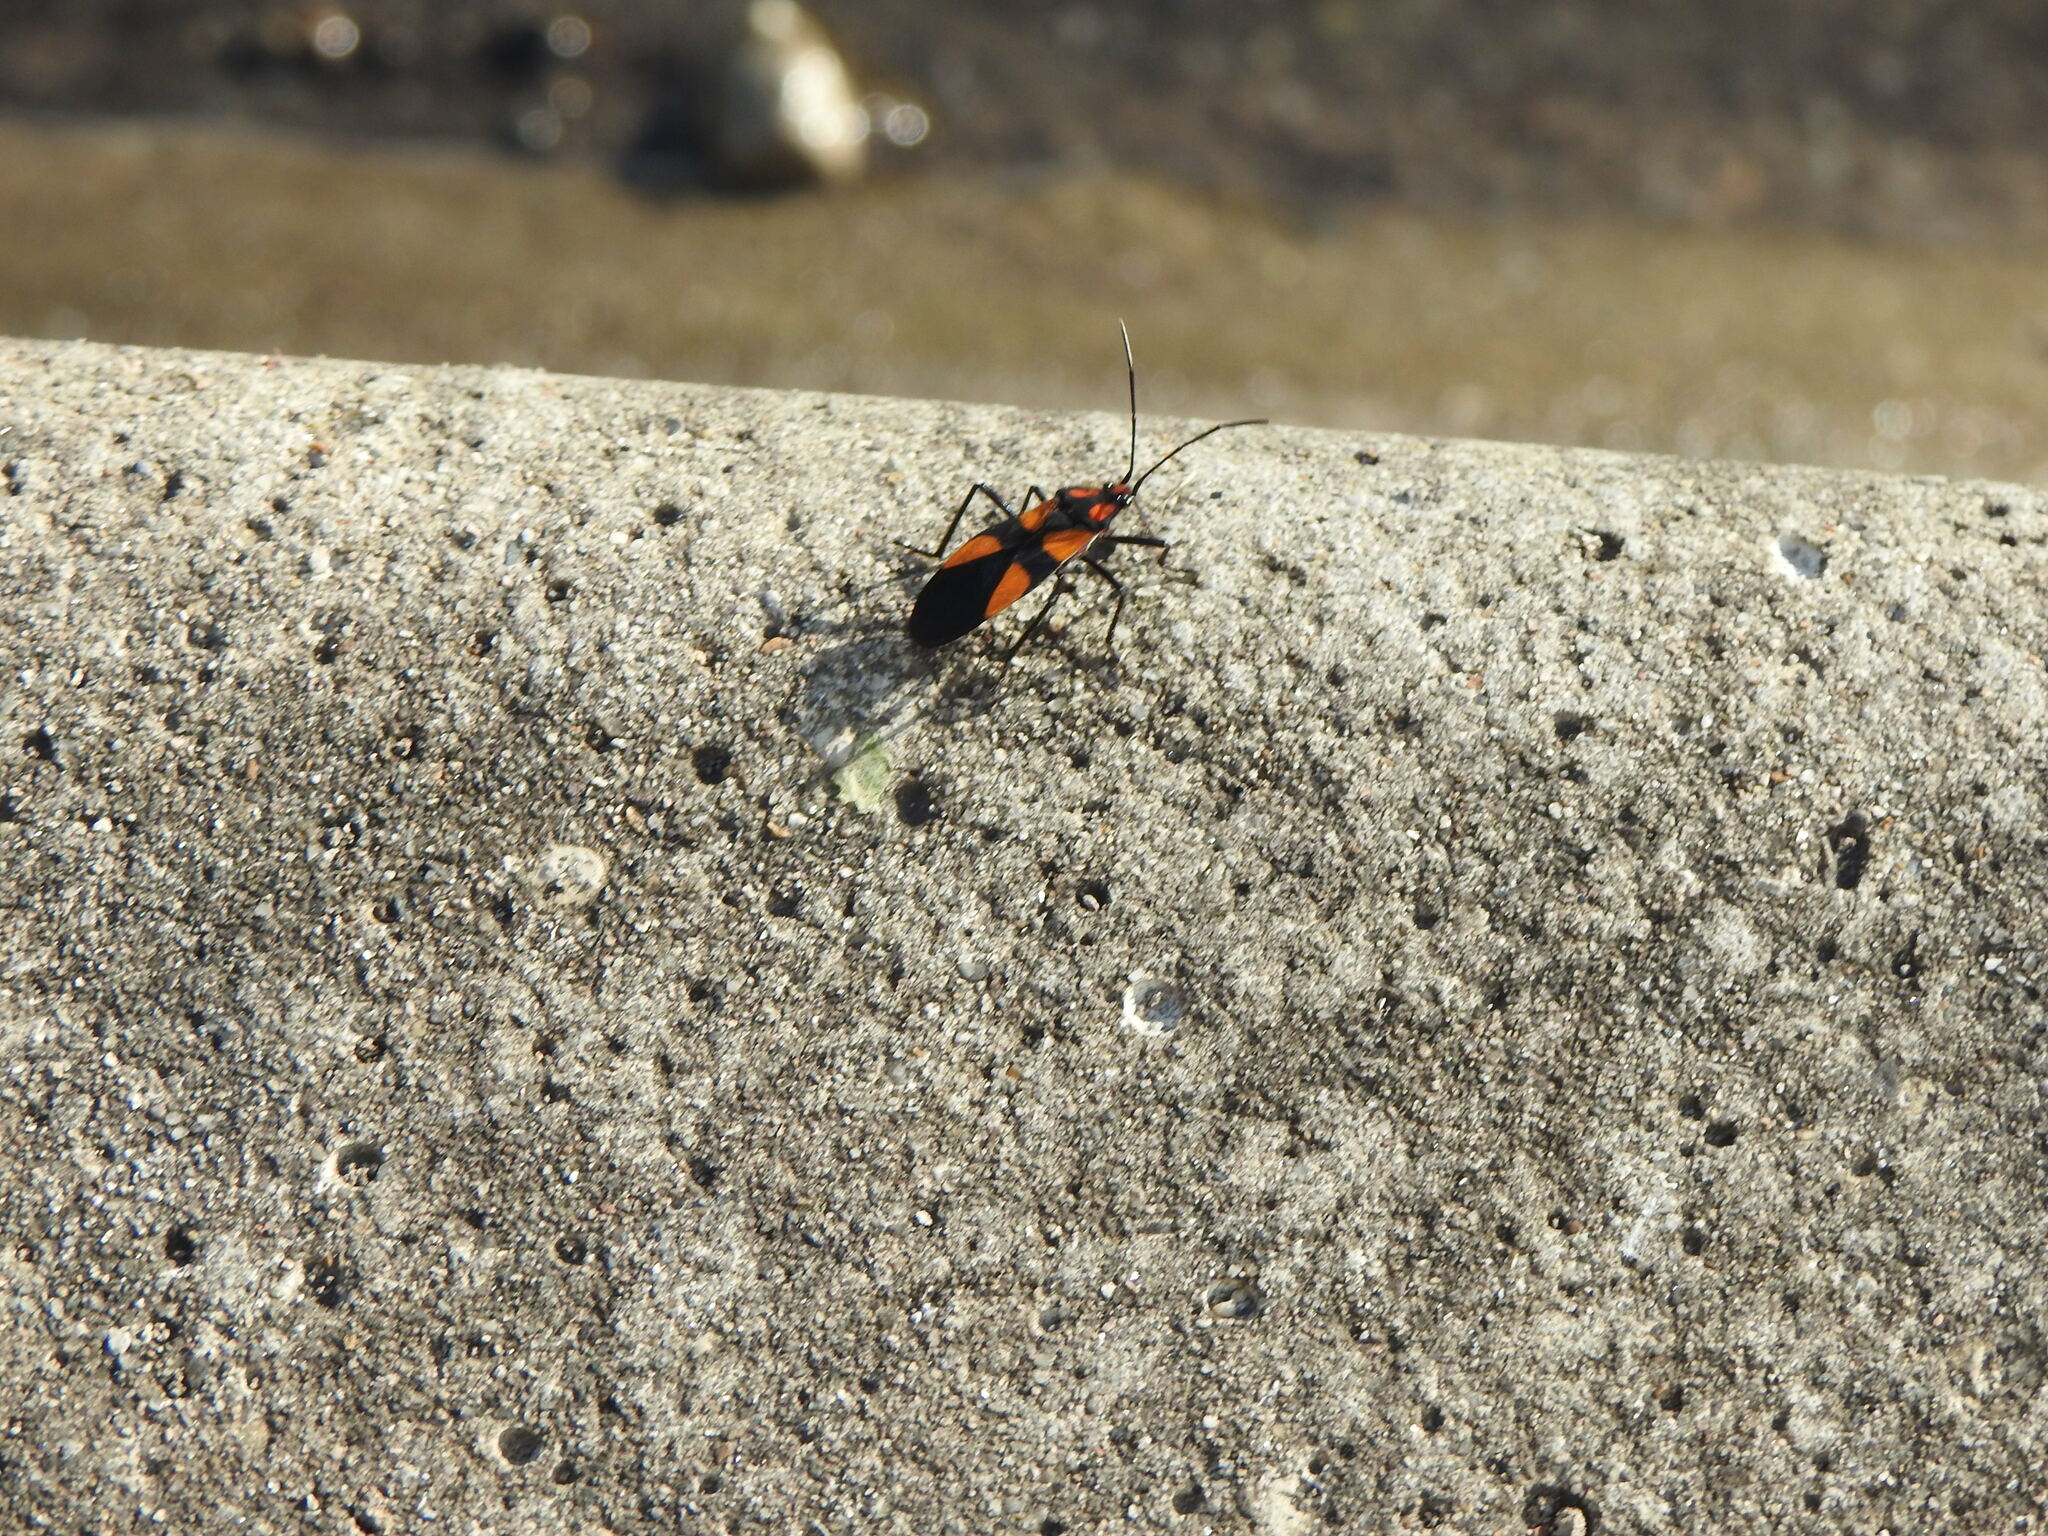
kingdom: Animalia
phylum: Arthropoda
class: Insecta
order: Hemiptera
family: Lygaeidae
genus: Oncopeltus
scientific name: Oncopeltus varicolor
